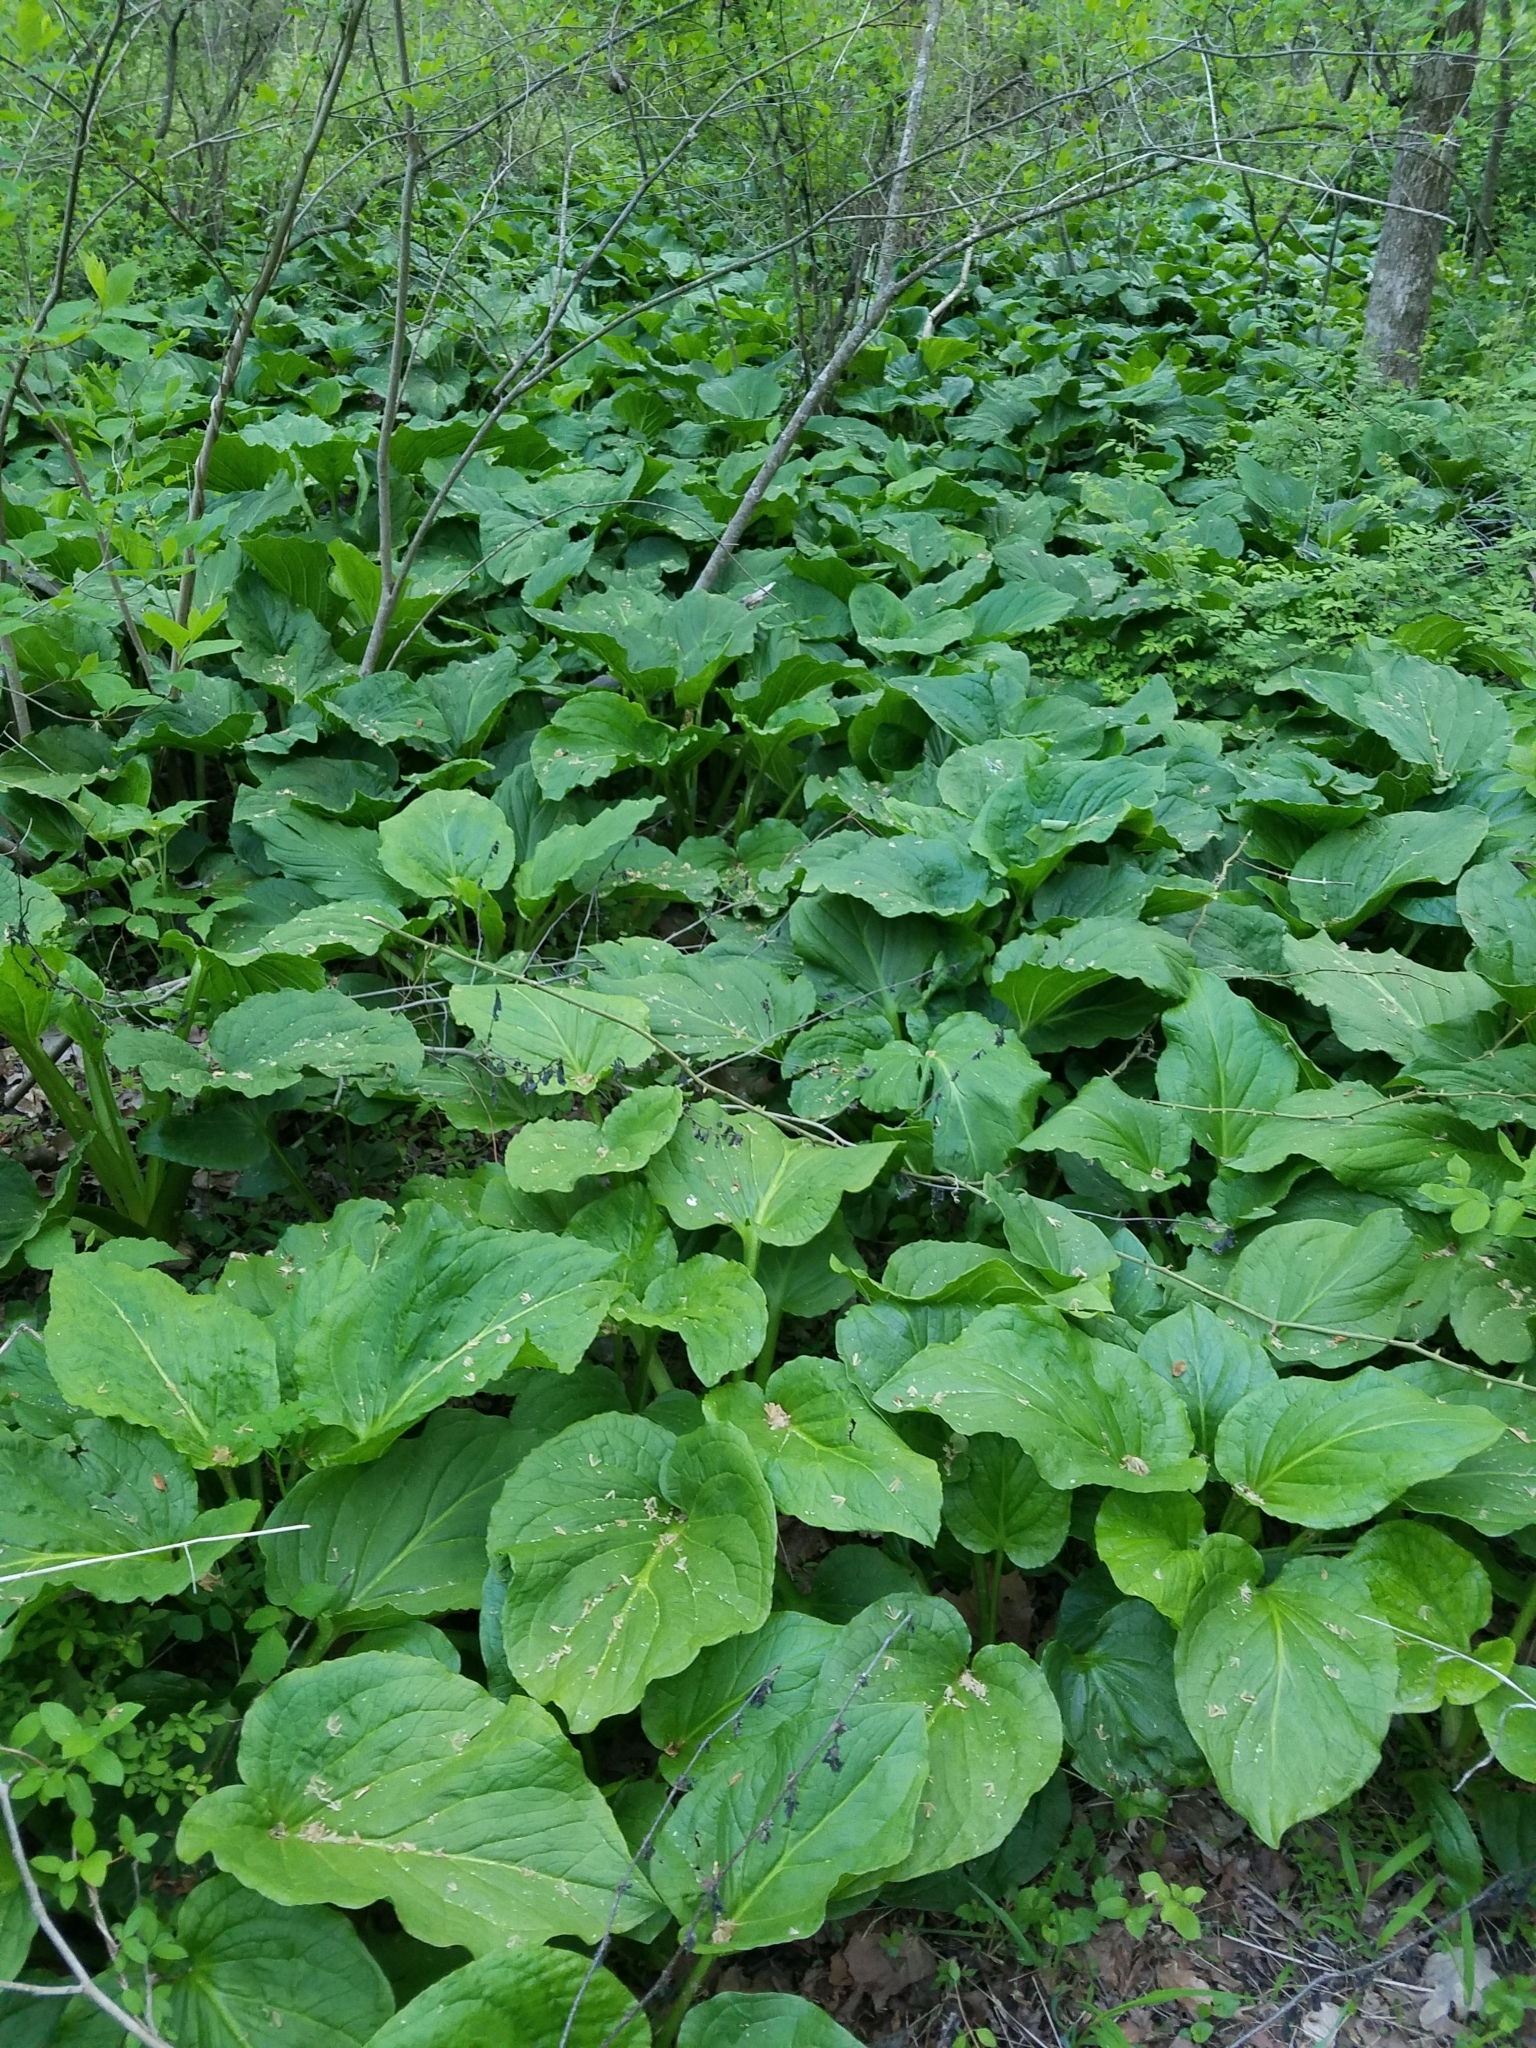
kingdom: Plantae
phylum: Tracheophyta
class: Liliopsida
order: Alismatales
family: Araceae
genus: Symplocarpus
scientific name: Symplocarpus foetidus
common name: Eastern skunk cabbage
